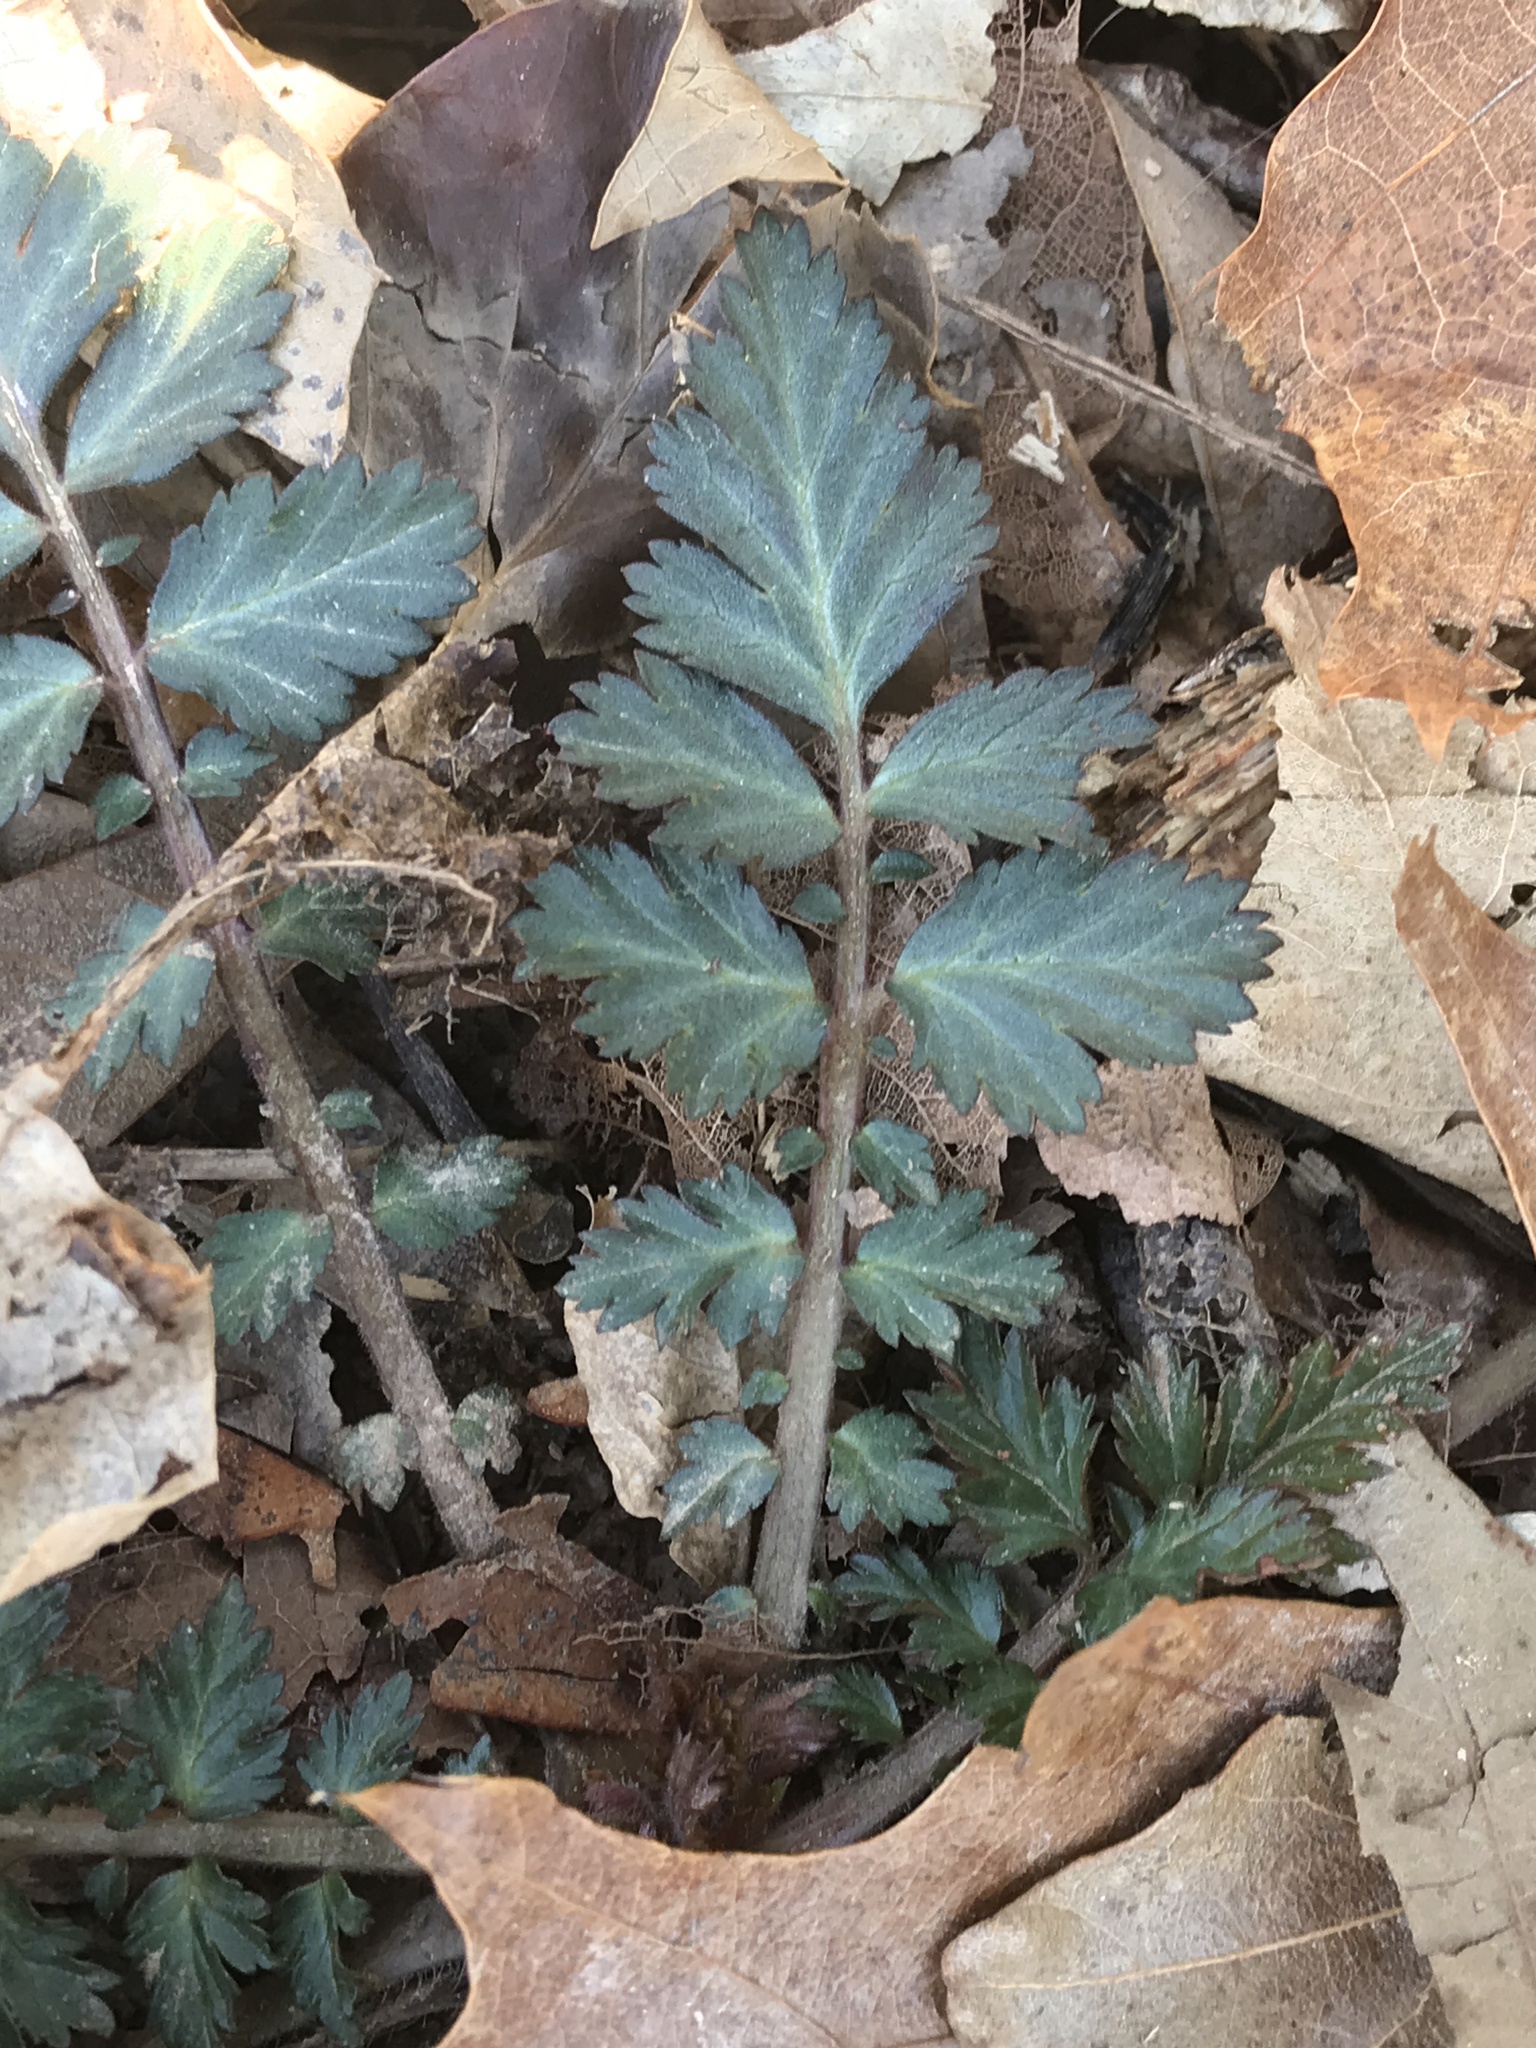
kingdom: Plantae
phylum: Tracheophyta
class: Magnoliopsida
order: Rosales
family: Rosaceae
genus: Geum
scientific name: Geum canadense
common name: White avens
